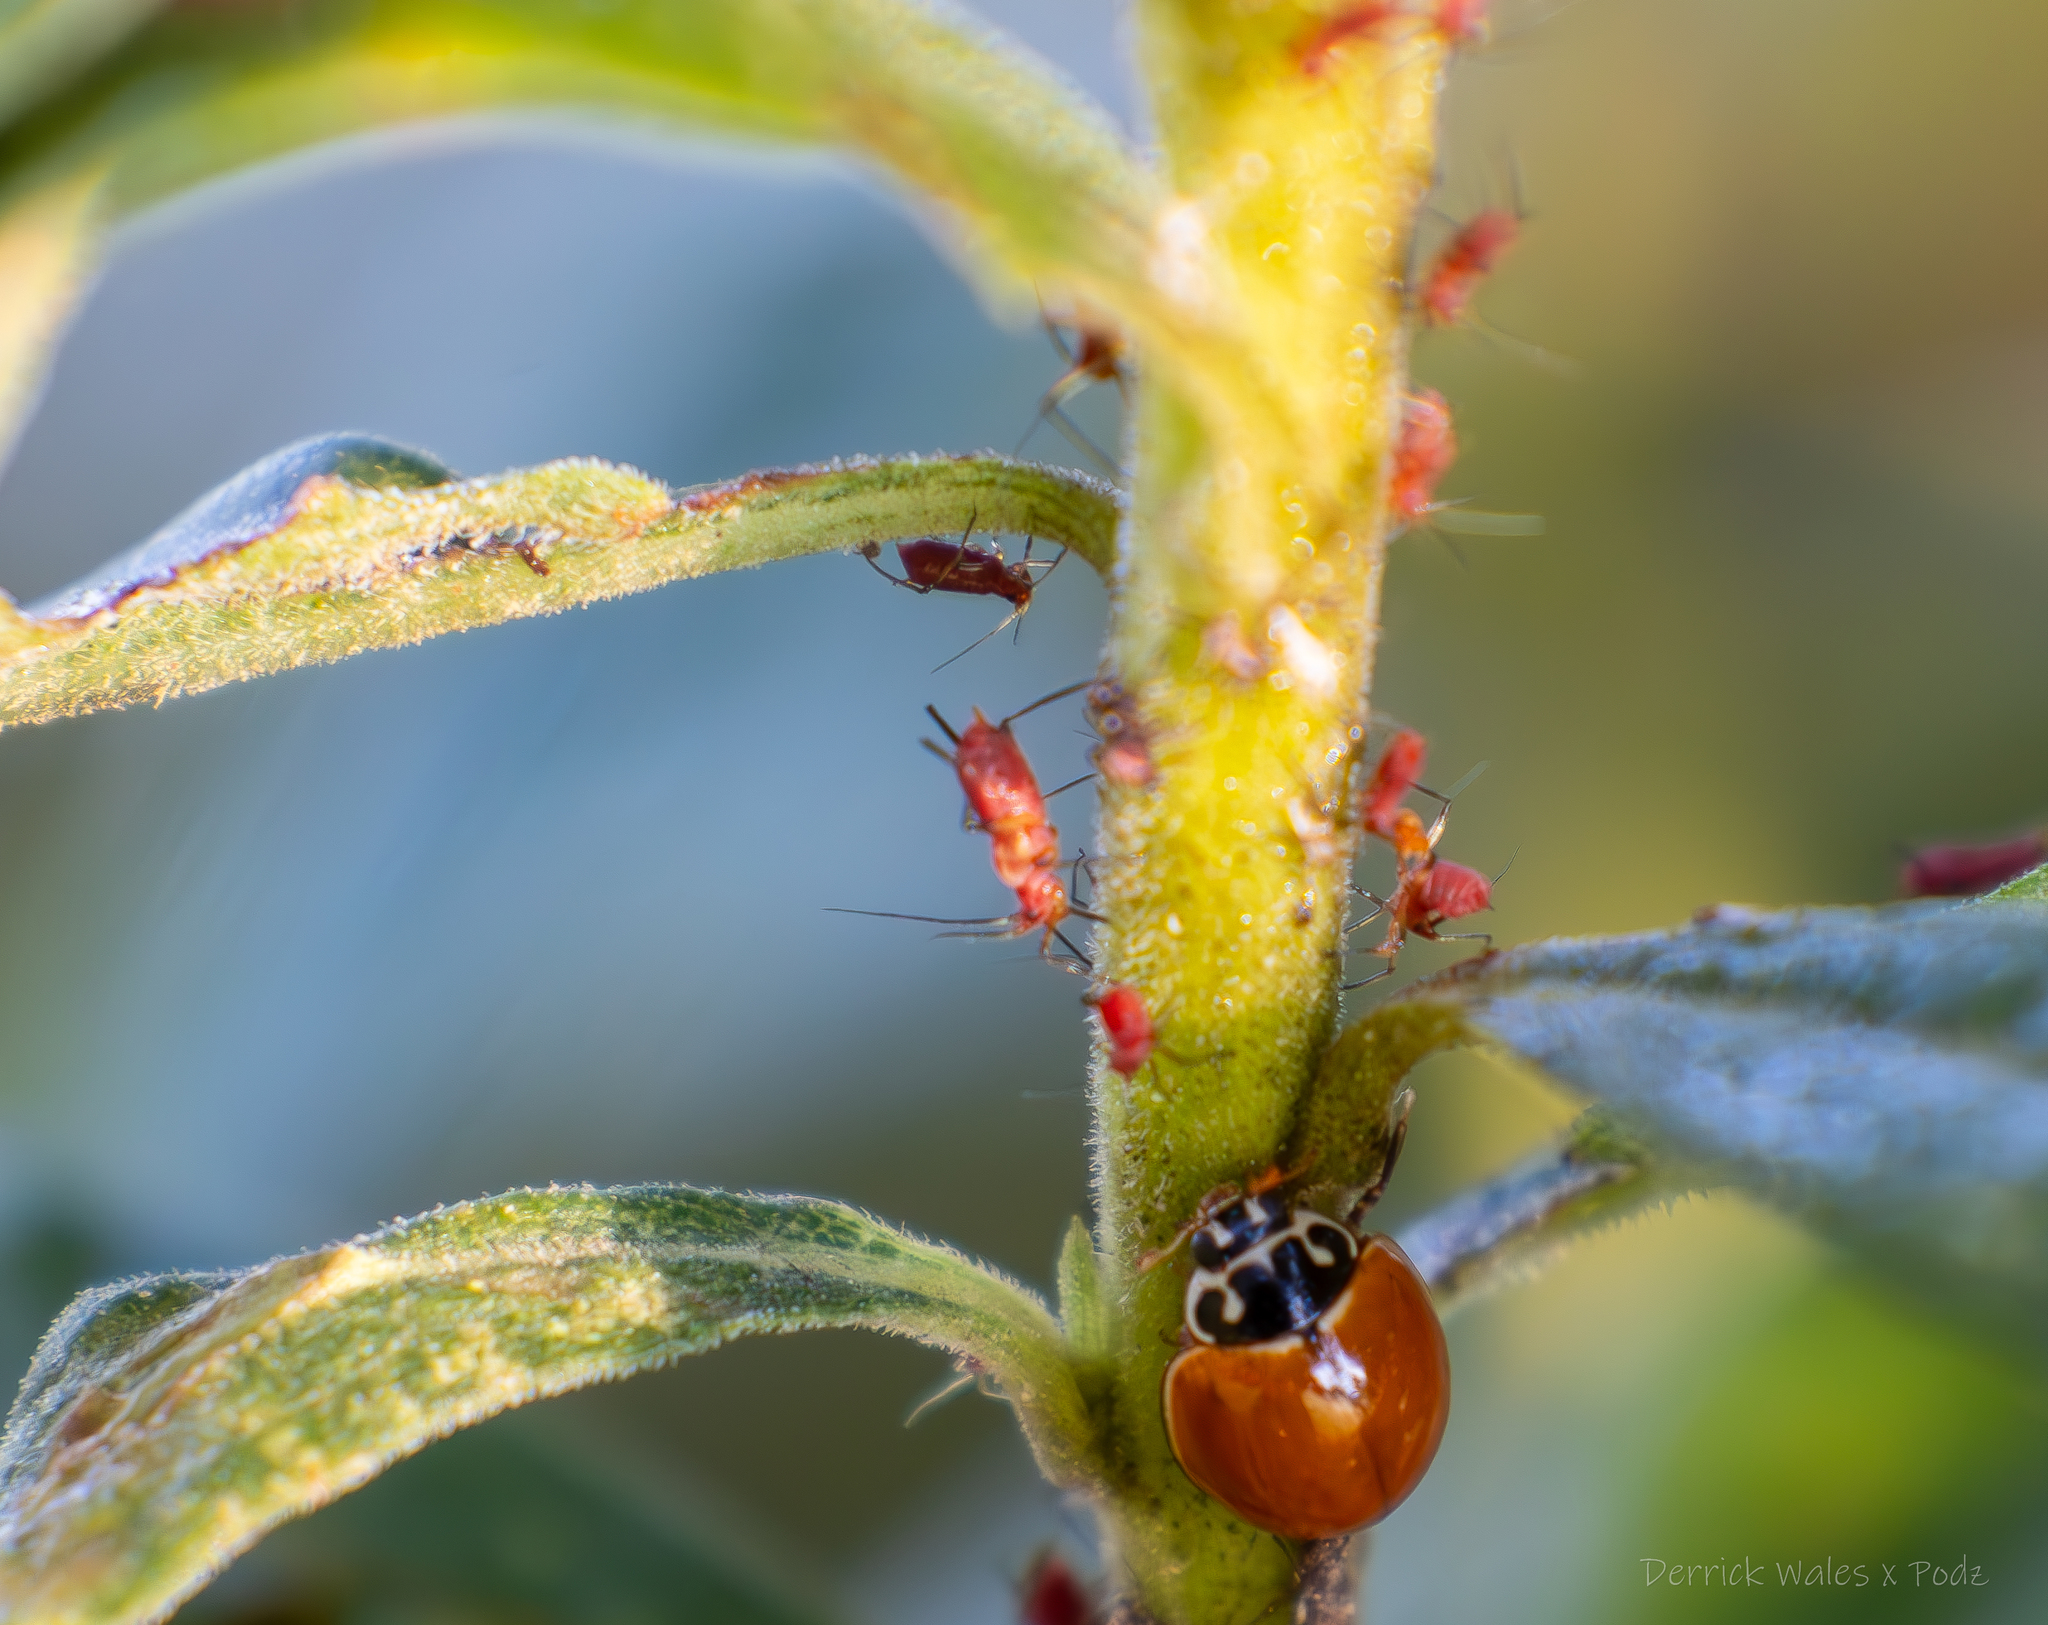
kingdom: Animalia
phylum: Arthropoda
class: Insecta
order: Coleoptera
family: Coccinellidae
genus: Cycloneda
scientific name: Cycloneda munda
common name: Polished lady beetle
